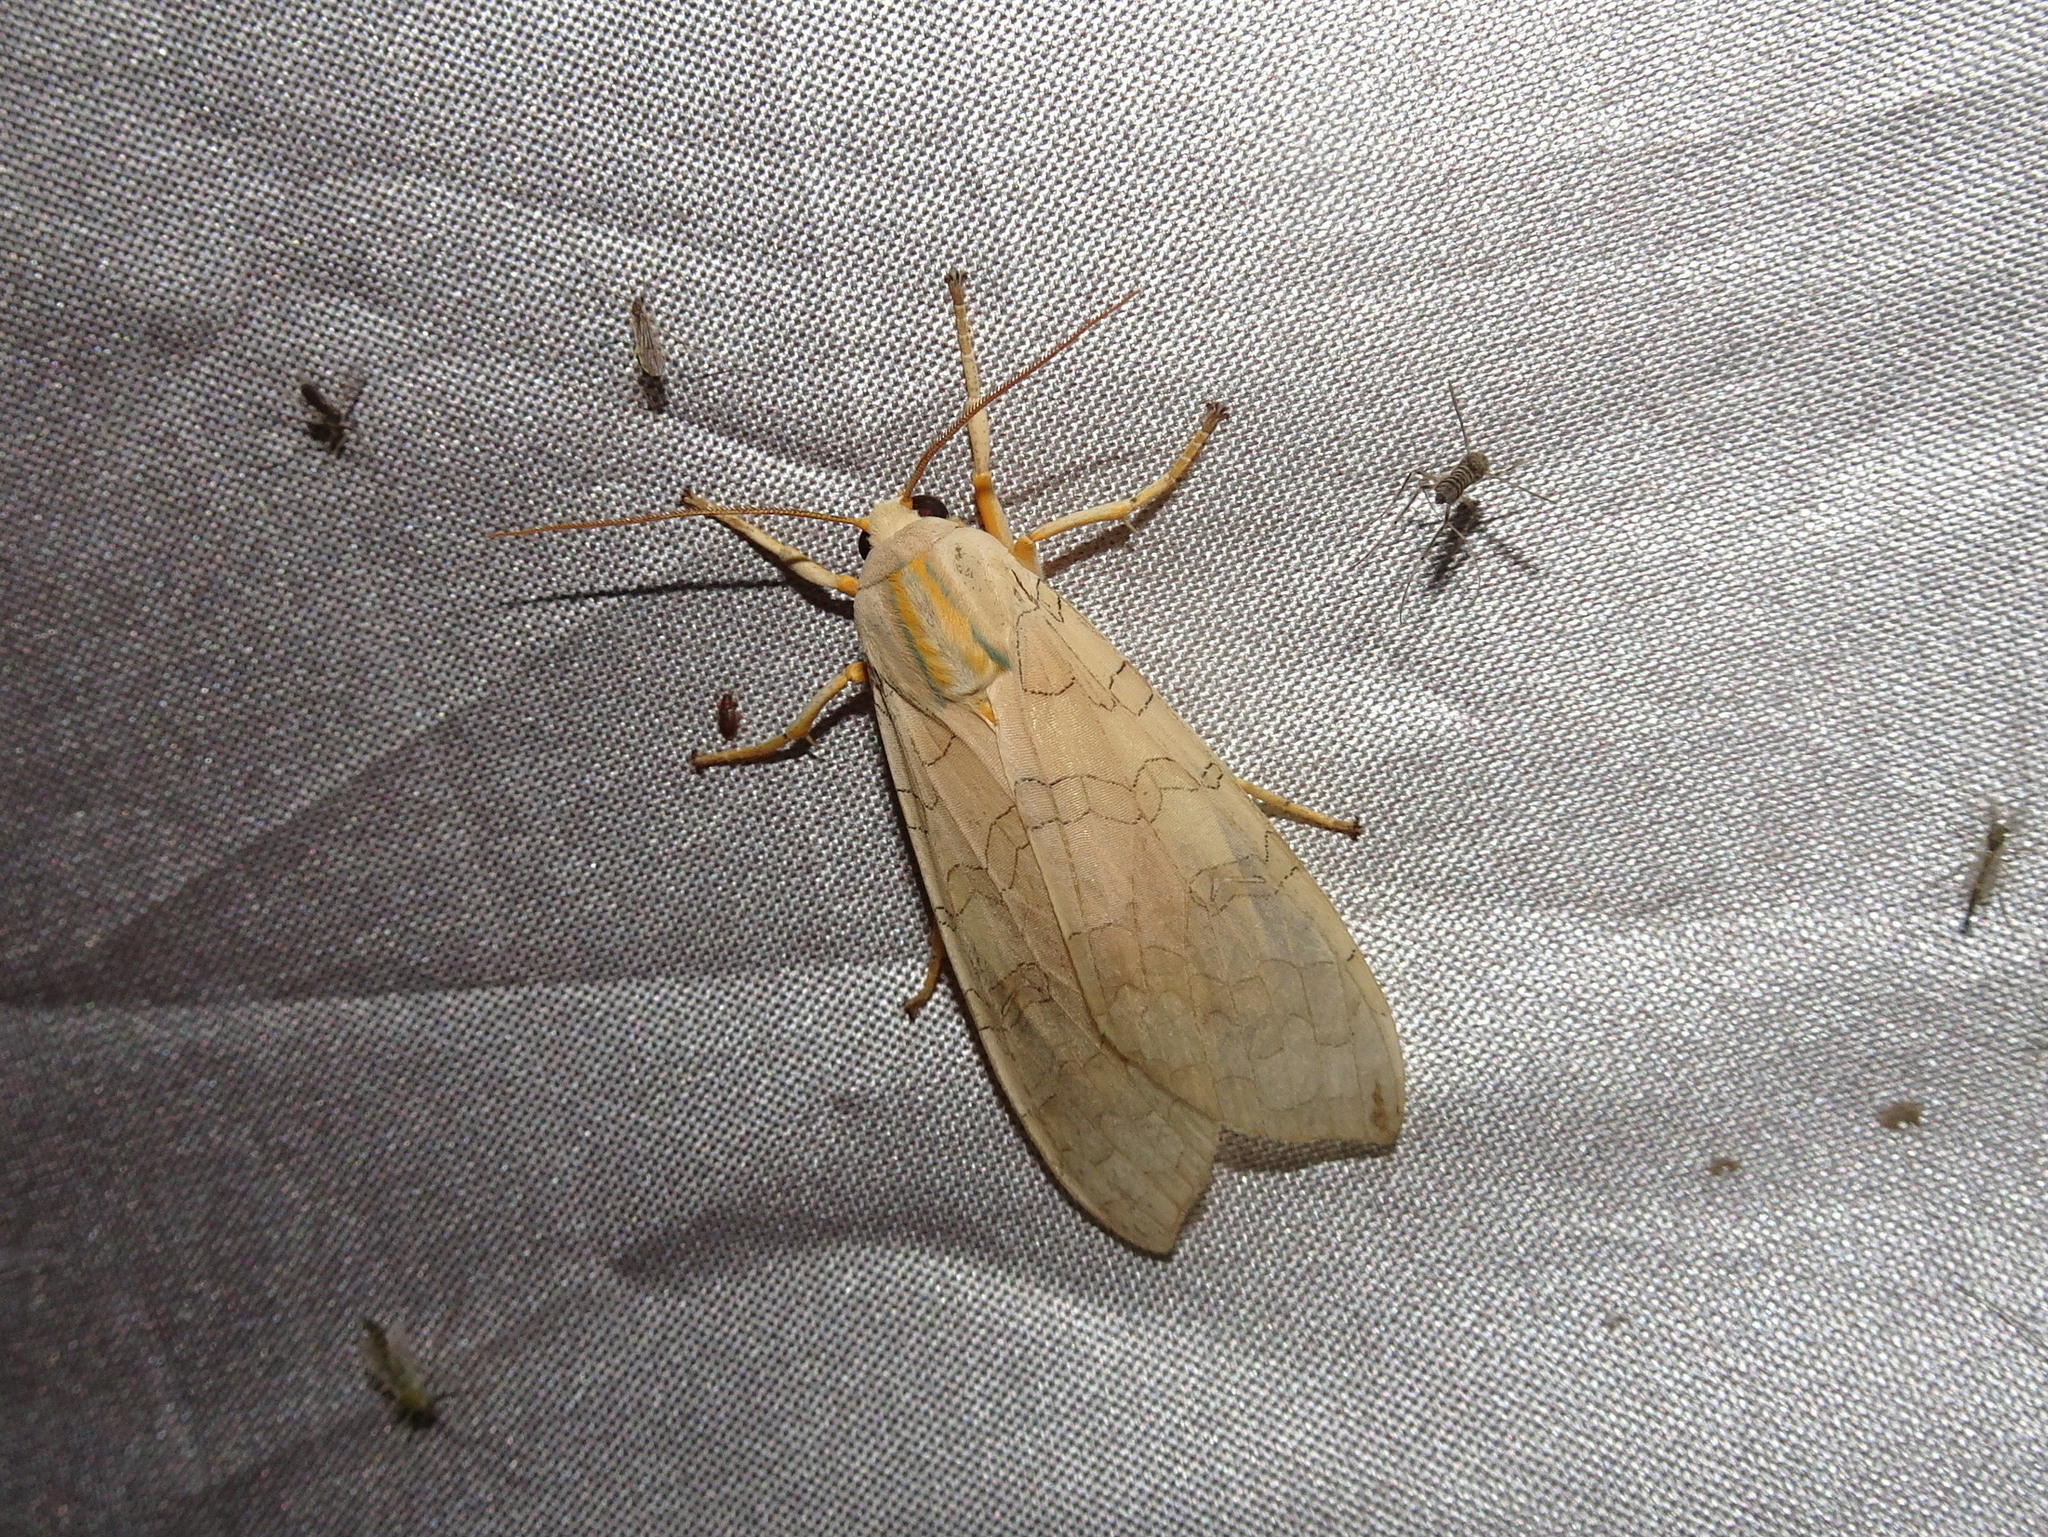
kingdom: Animalia
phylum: Arthropoda
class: Insecta
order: Lepidoptera
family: Erebidae
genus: Halysidota
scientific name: Halysidota
